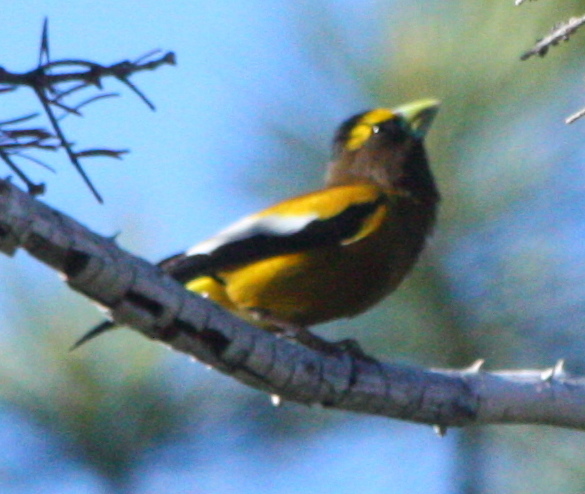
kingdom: Animalia
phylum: Chordata
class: Aves
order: Passeriformes
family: Fringillidae
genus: Hesperiphona
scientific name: Hesperiphona vespertina
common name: Evening grosbeak
